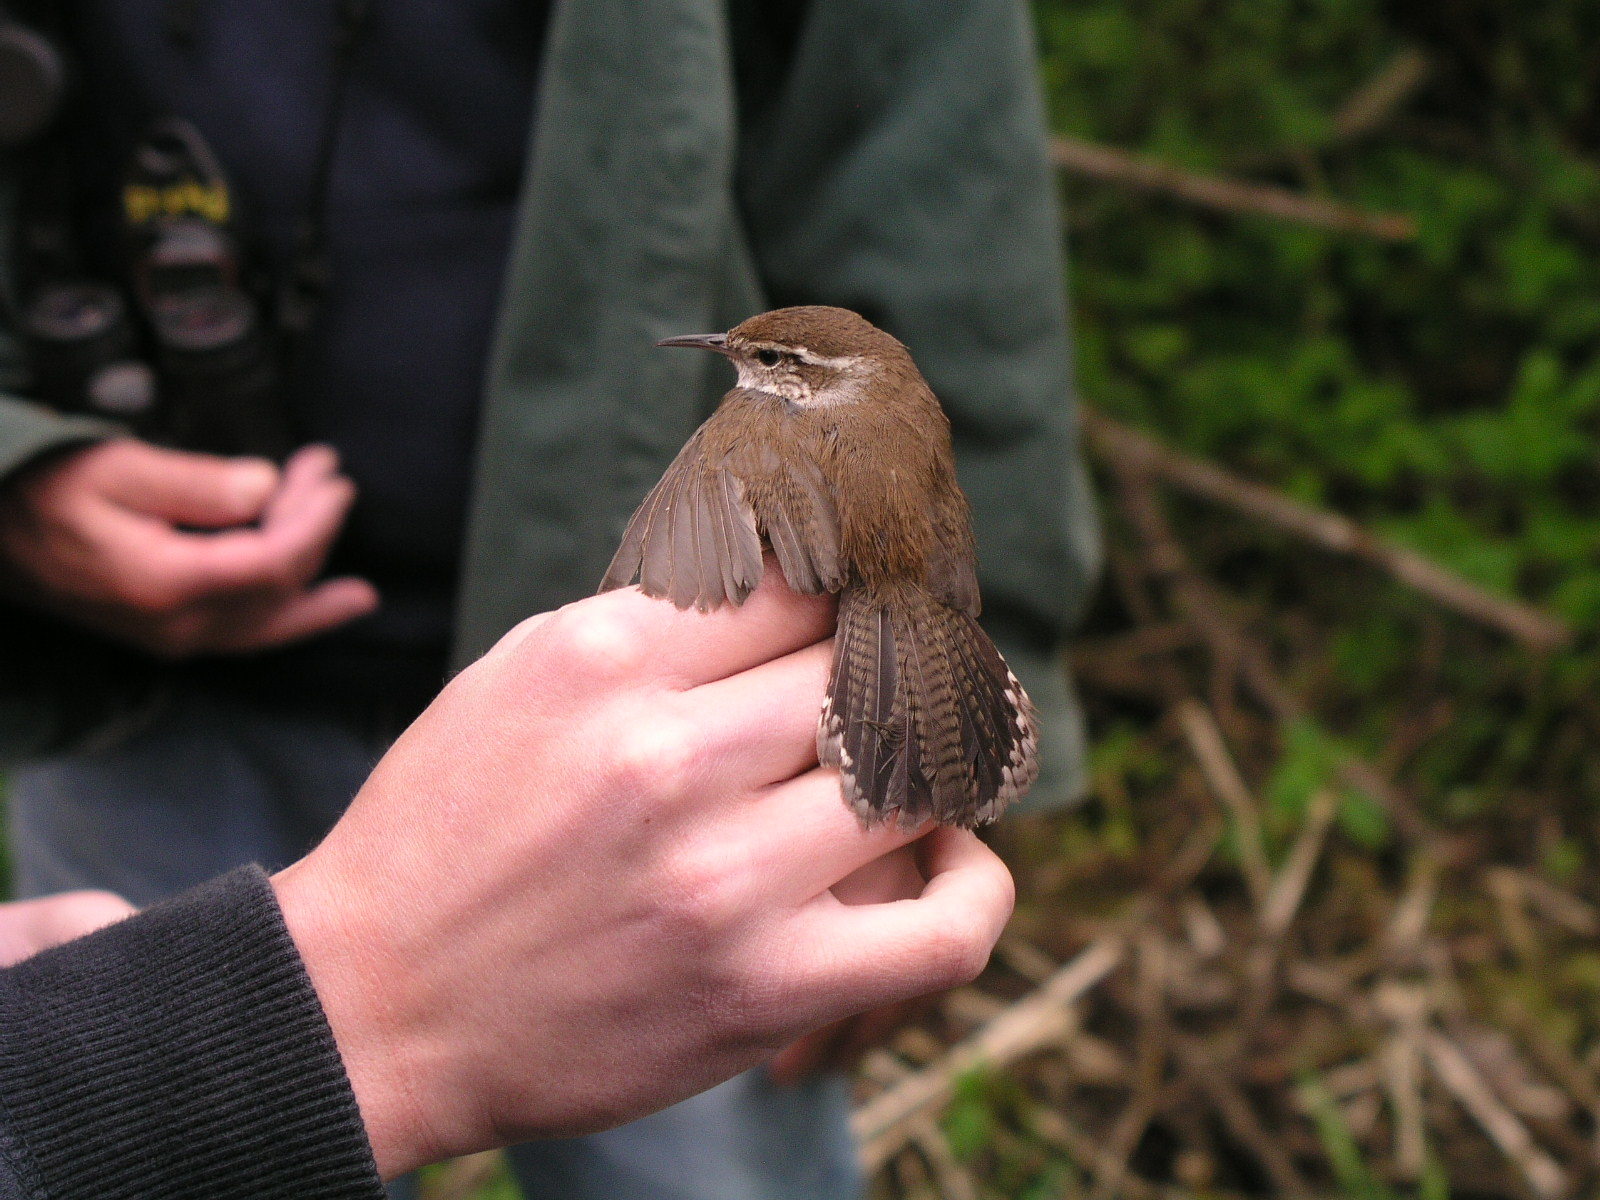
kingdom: Animalia
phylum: Chordata
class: Aves
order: Passeriformes
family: Troglodytidae
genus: Thryomanes
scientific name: Thryomanes bewickii
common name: Bewick's wren
